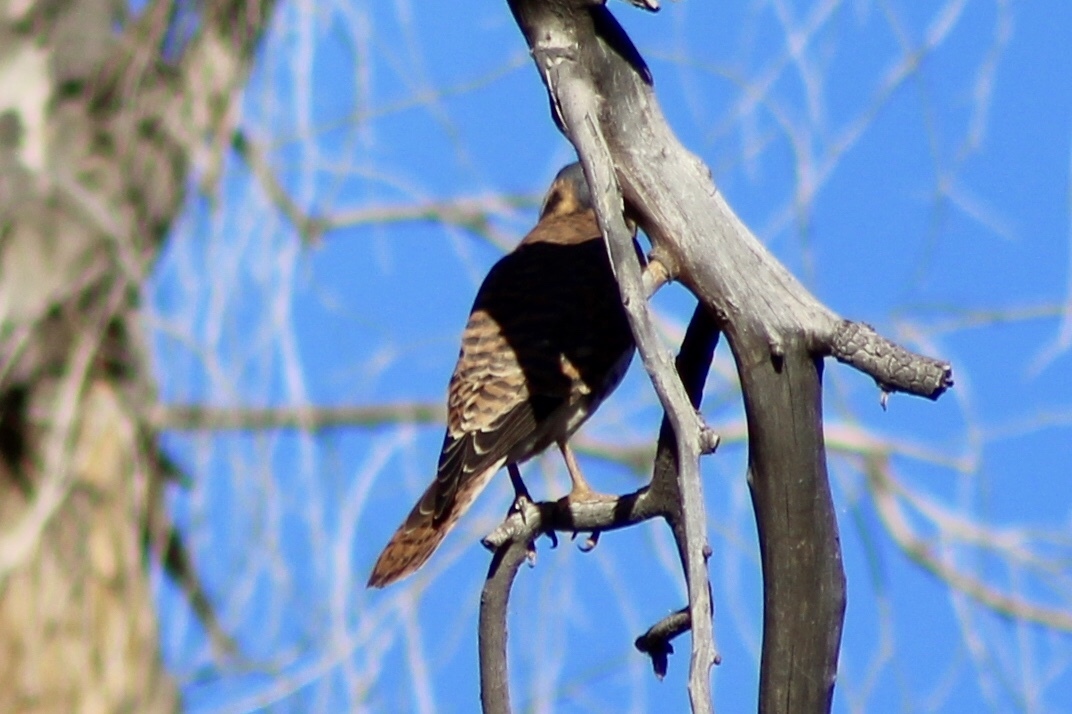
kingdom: Animalia
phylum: Chordata
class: Aves
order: Falconiformes
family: Falconidae
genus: Falco
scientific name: Falco sparverius
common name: American kestrel
